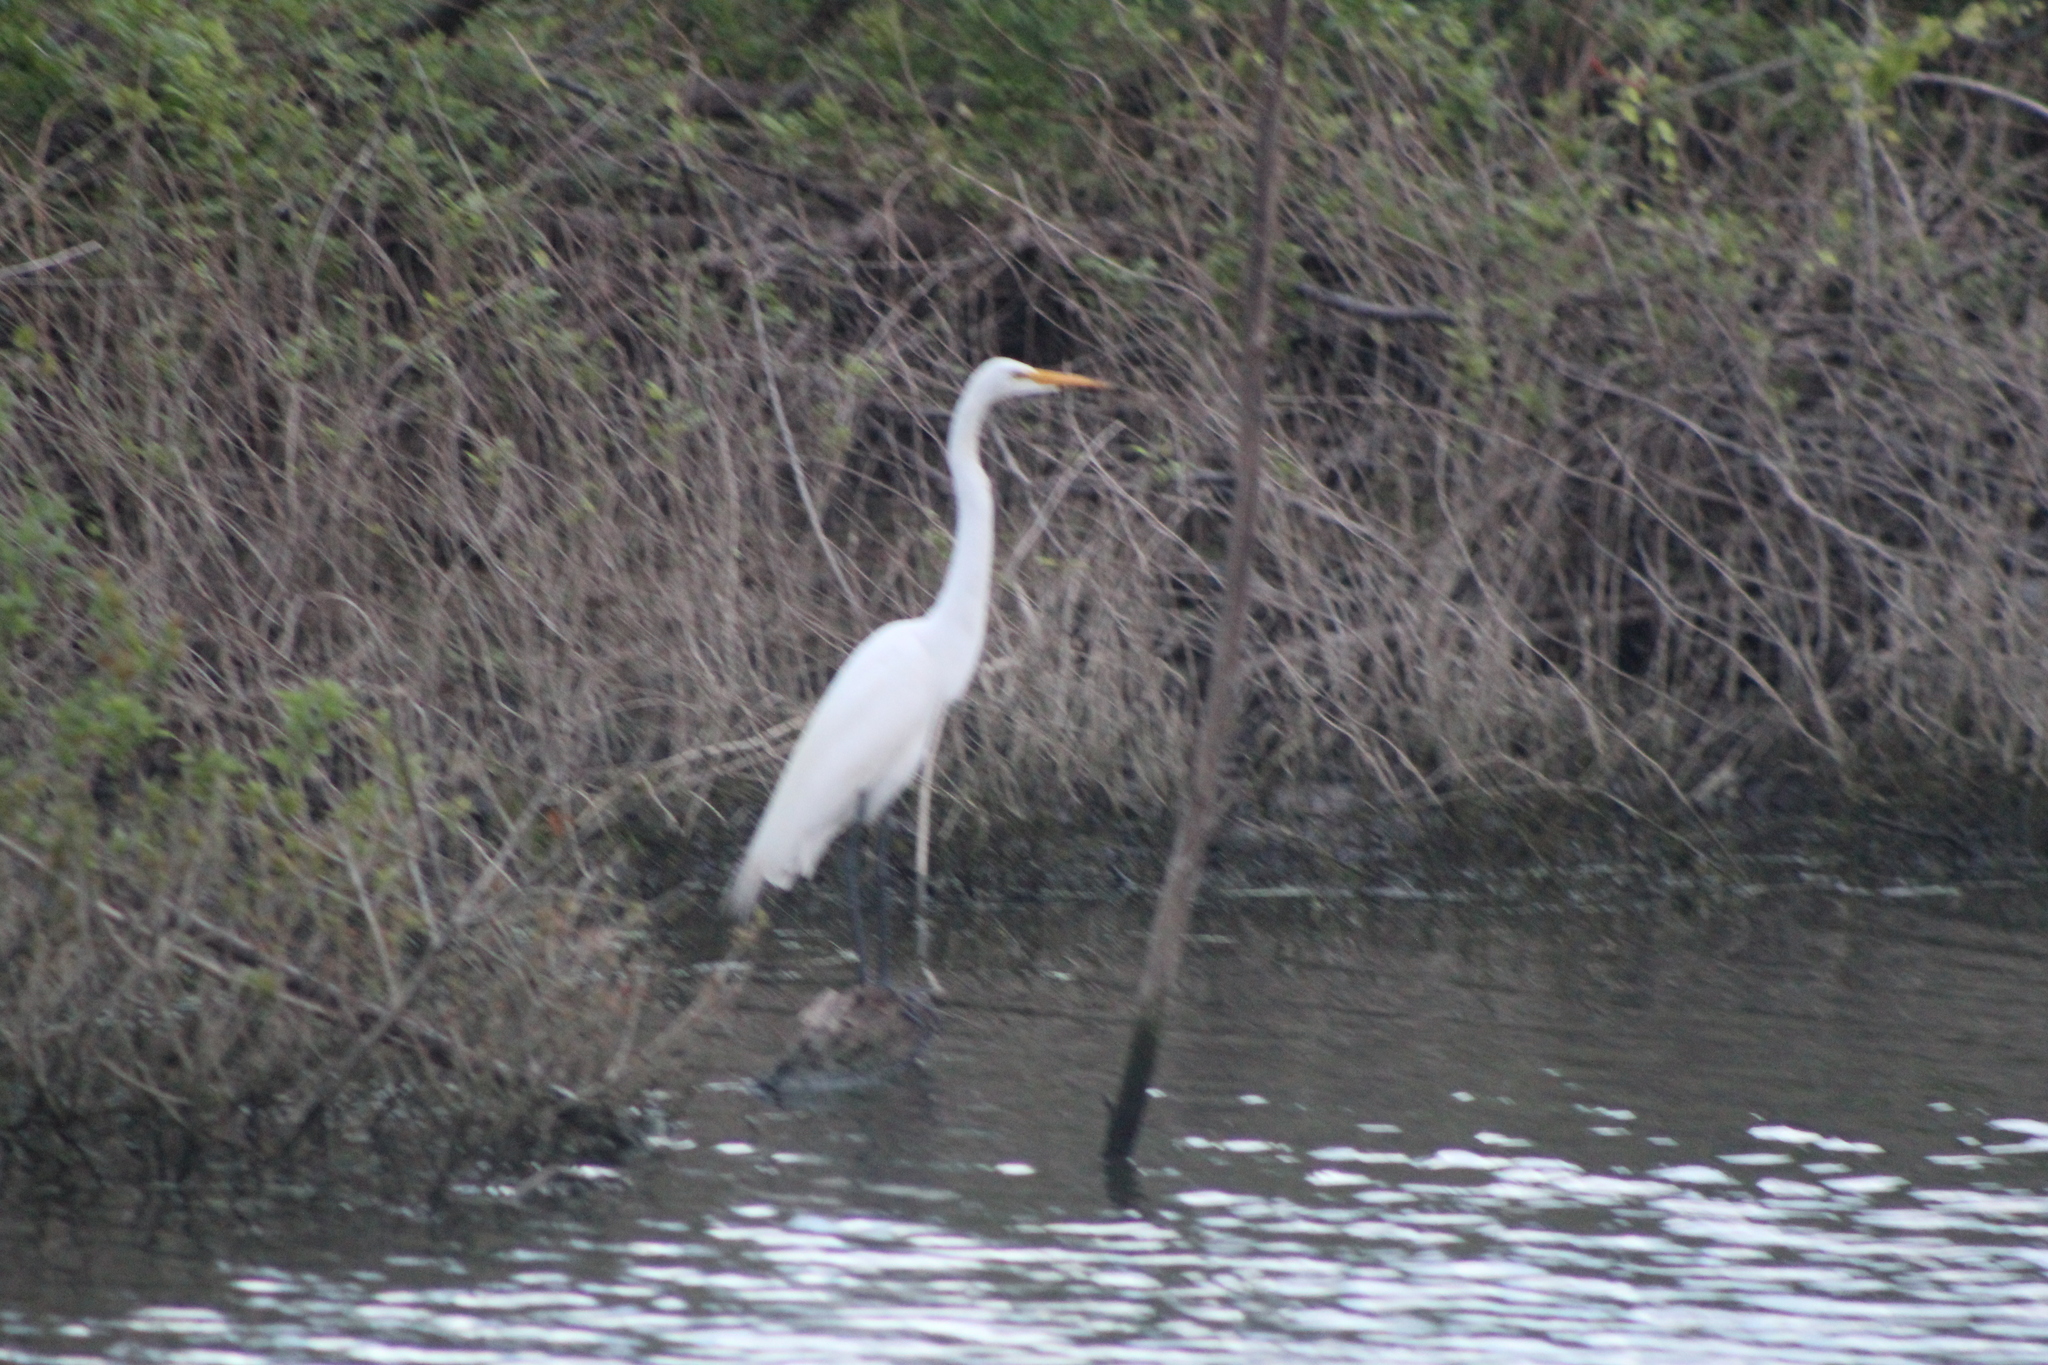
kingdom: Animalia
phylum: Chordata
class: Aves
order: Pelecaniformes
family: Ardeidae
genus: Ardea
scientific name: Ardea alba
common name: Great egret
